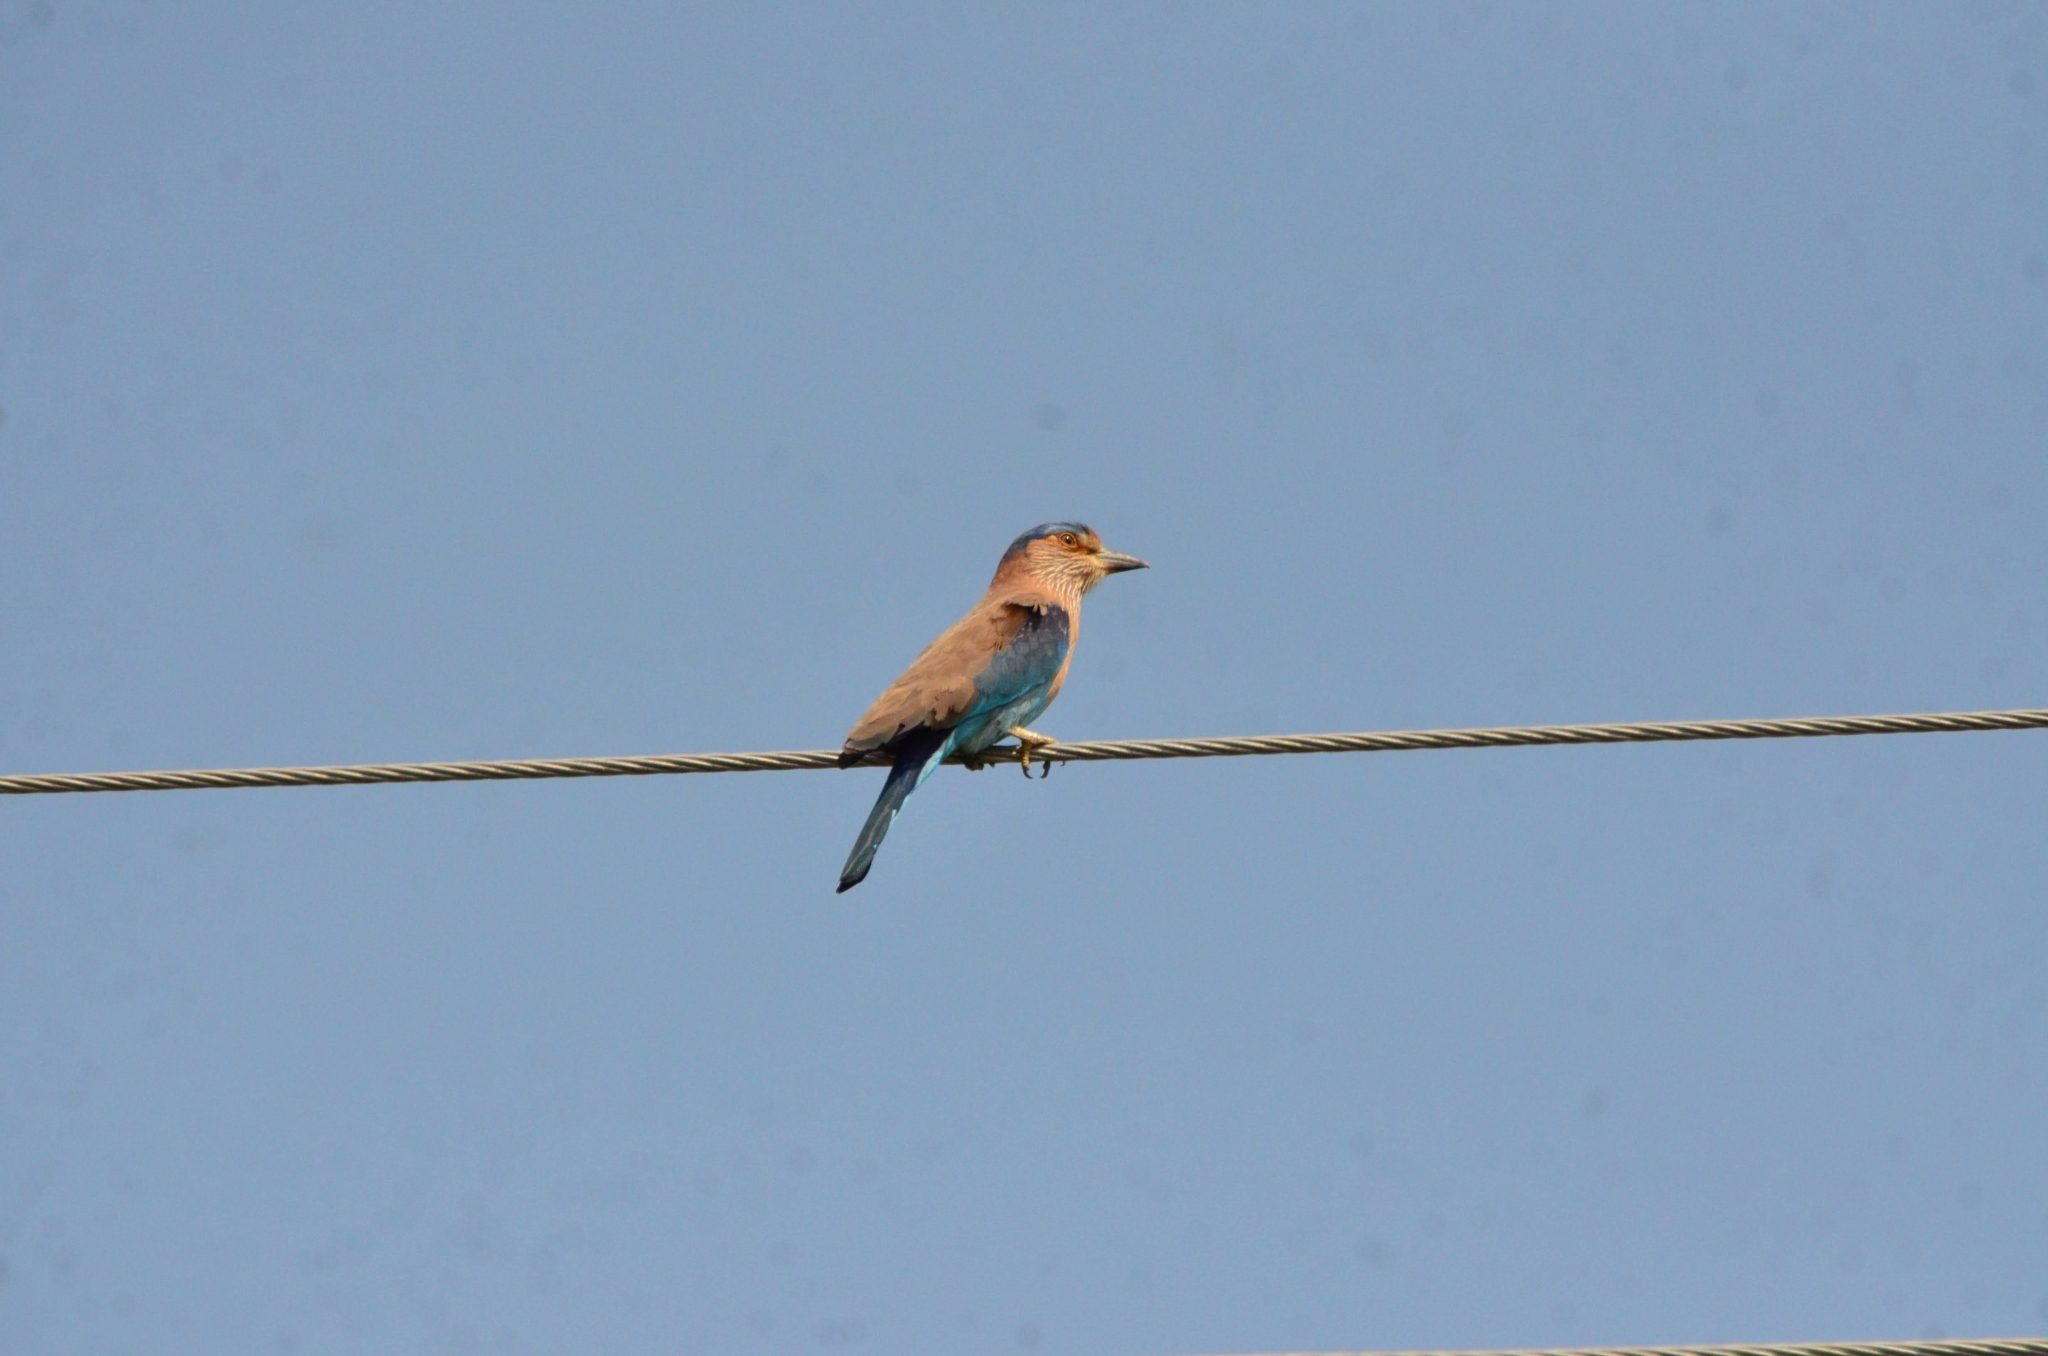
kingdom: Animalia
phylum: Chordata
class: Aves
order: Coraciiformes
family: Coraciidae
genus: Coracias
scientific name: Coracias benghalensis
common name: Indian roller
